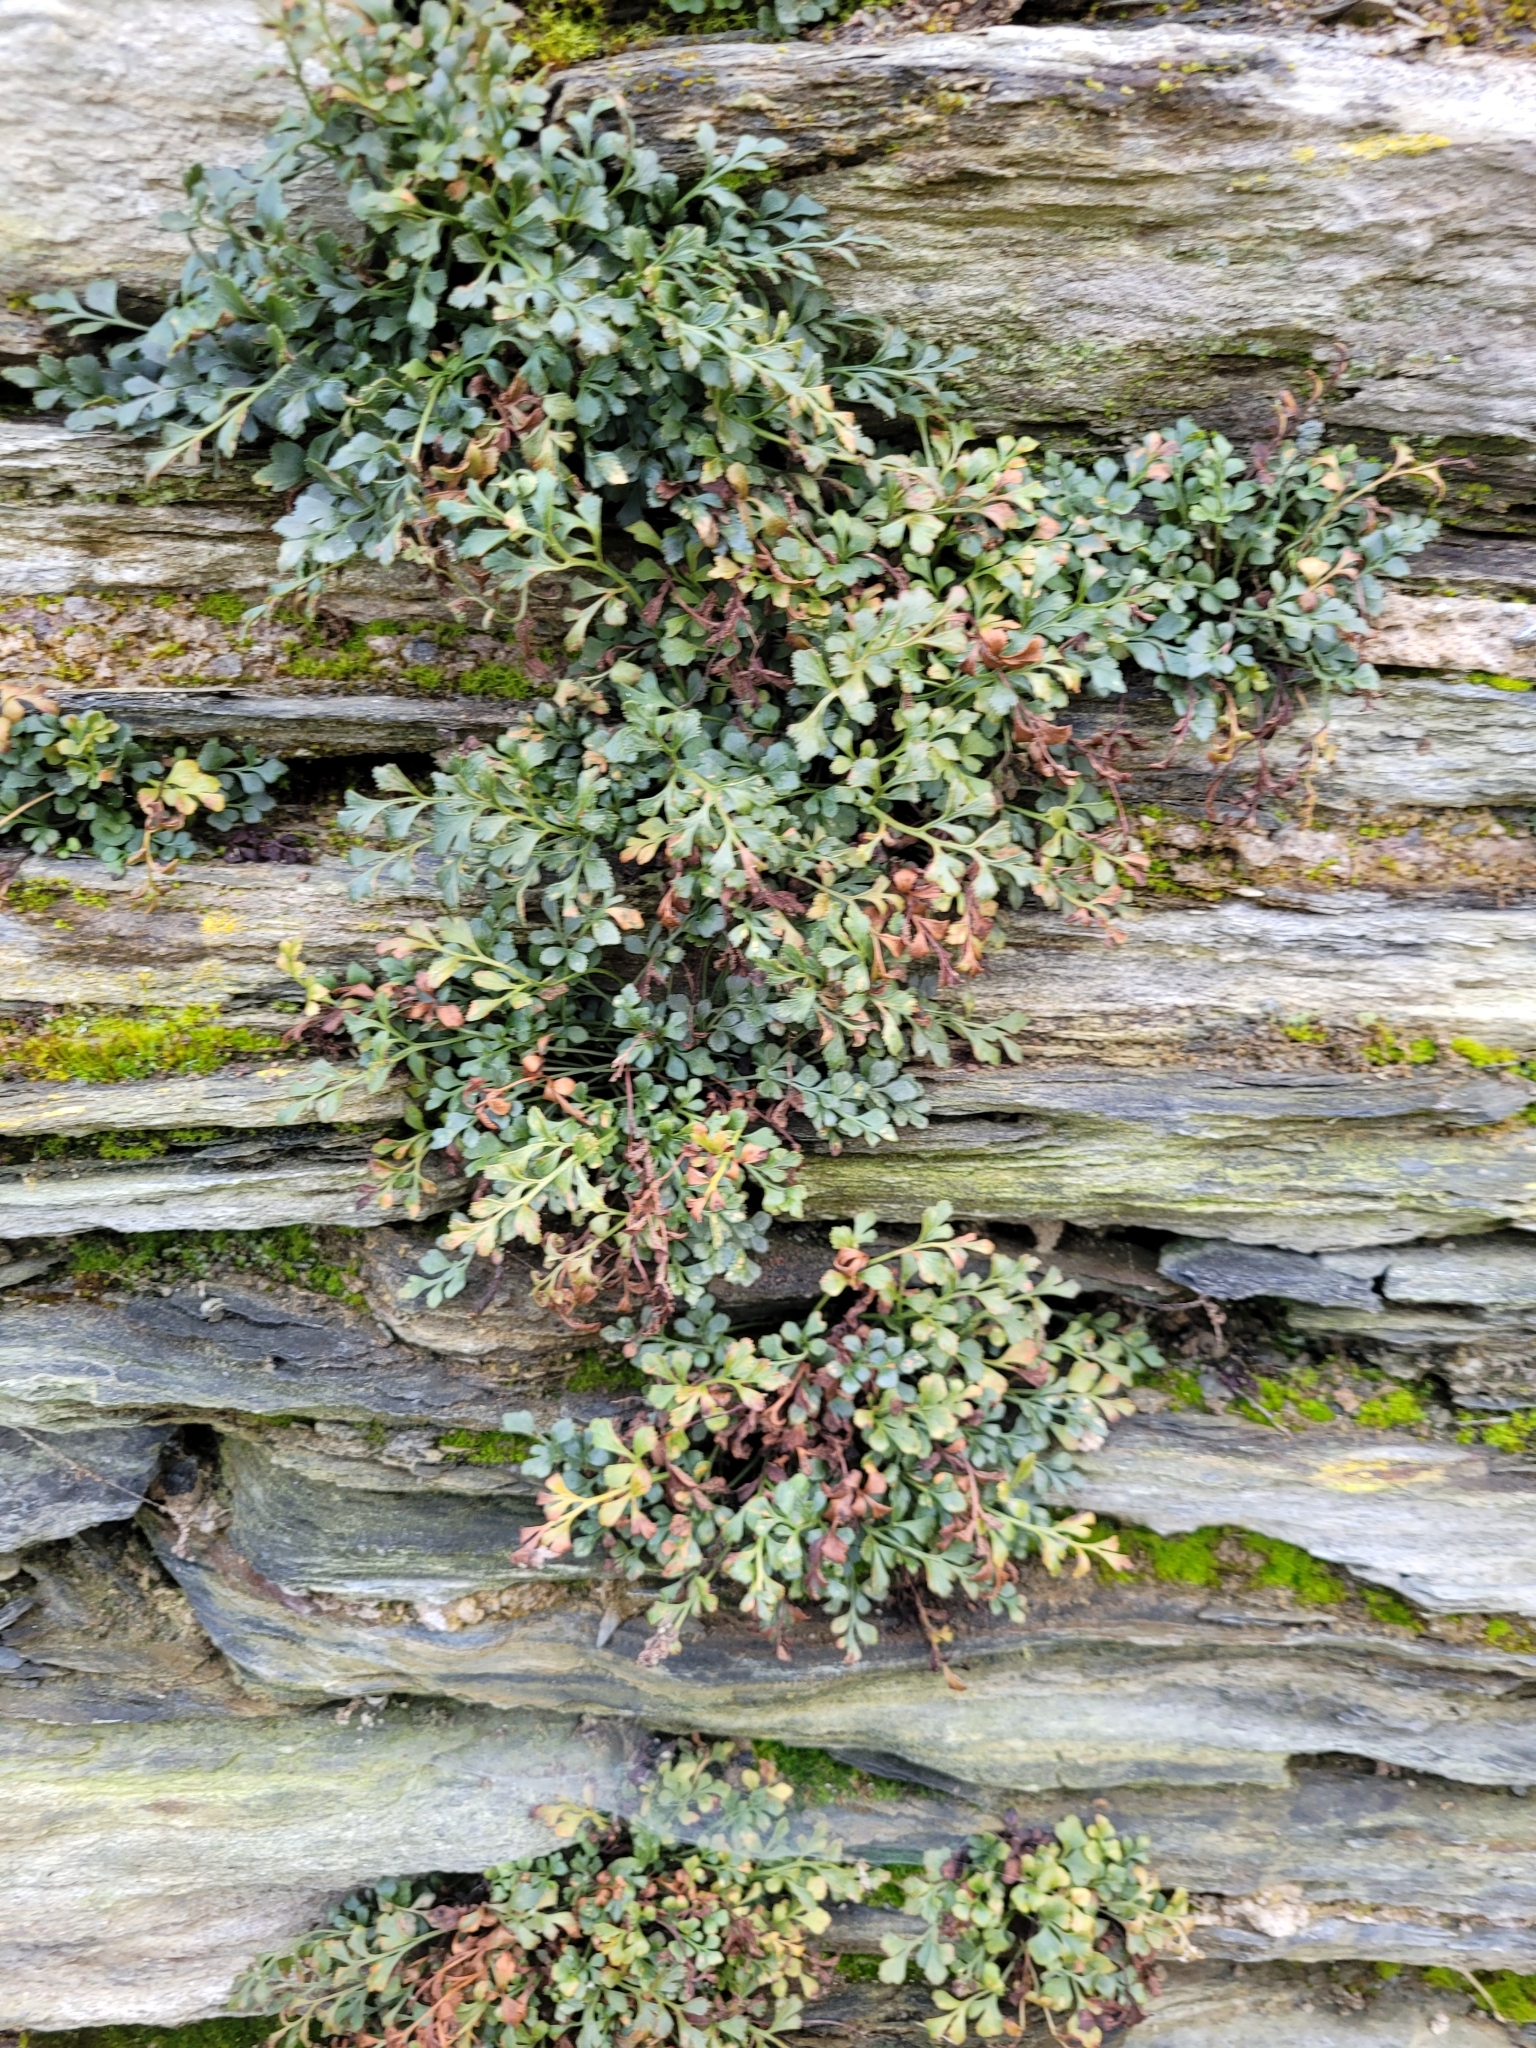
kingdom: Plantae
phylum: Tracheophyta
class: Polypodiopsida
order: Polypodiales
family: Aspleniaceae
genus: Asplenium
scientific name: Asplenium ruta-muraria
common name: Wall-rue
